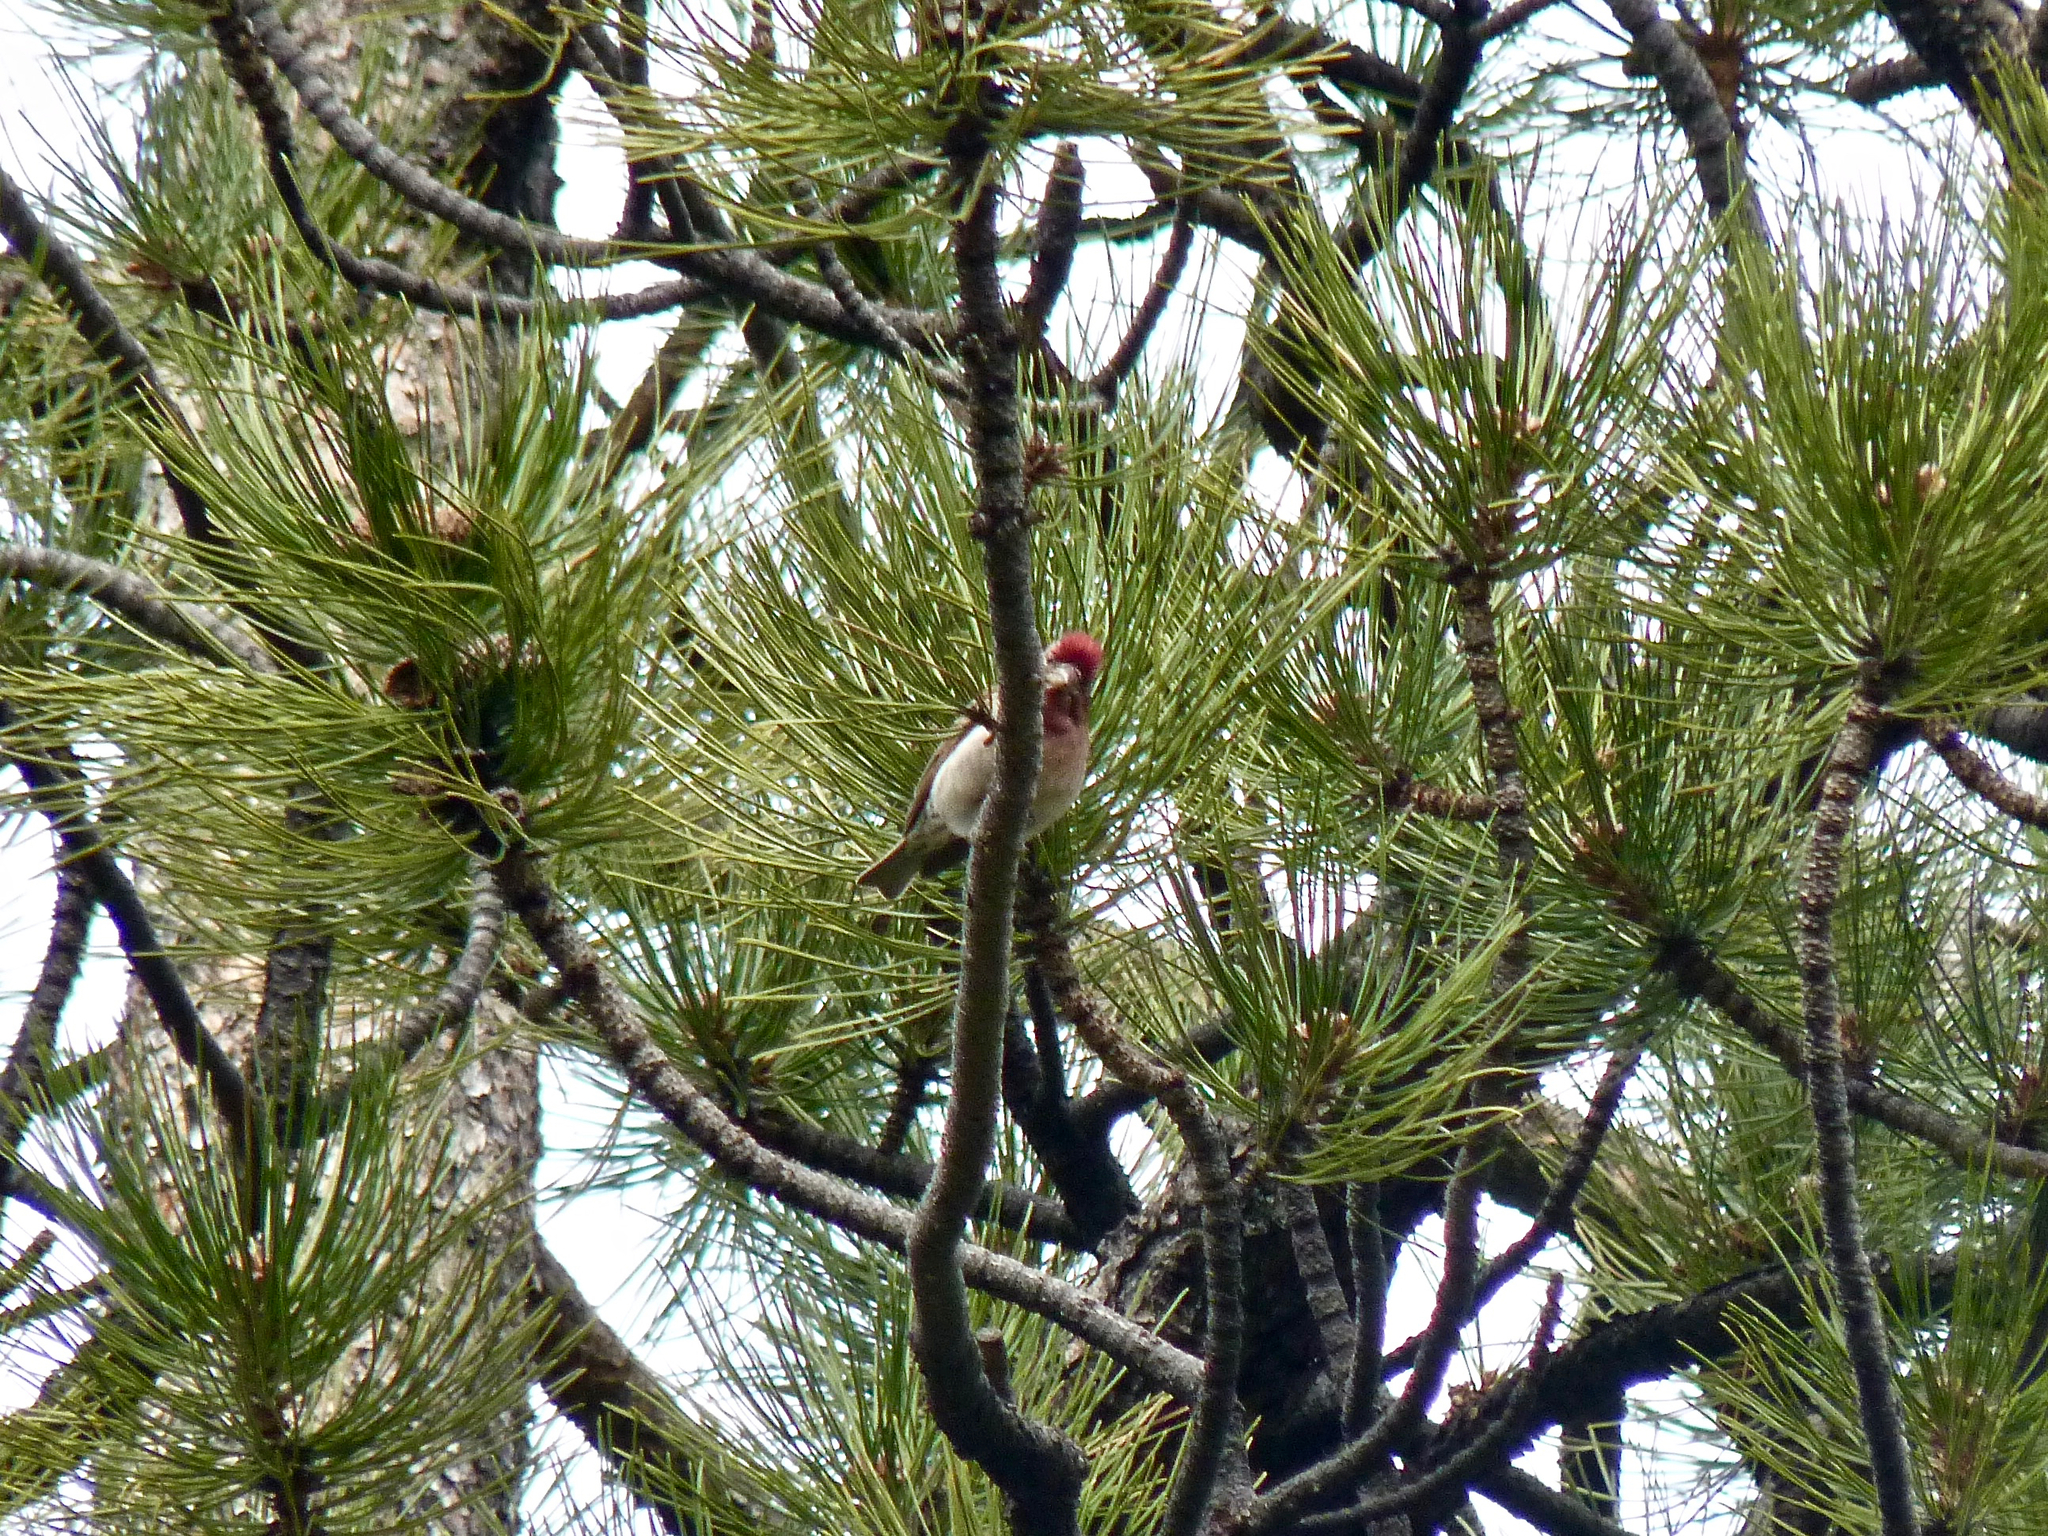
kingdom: Animalia
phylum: Chordata
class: Aves
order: Passeriformes
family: Fringillidae
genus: Haemorhous
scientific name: Haemorhous cassinii
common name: Cassin's finch
